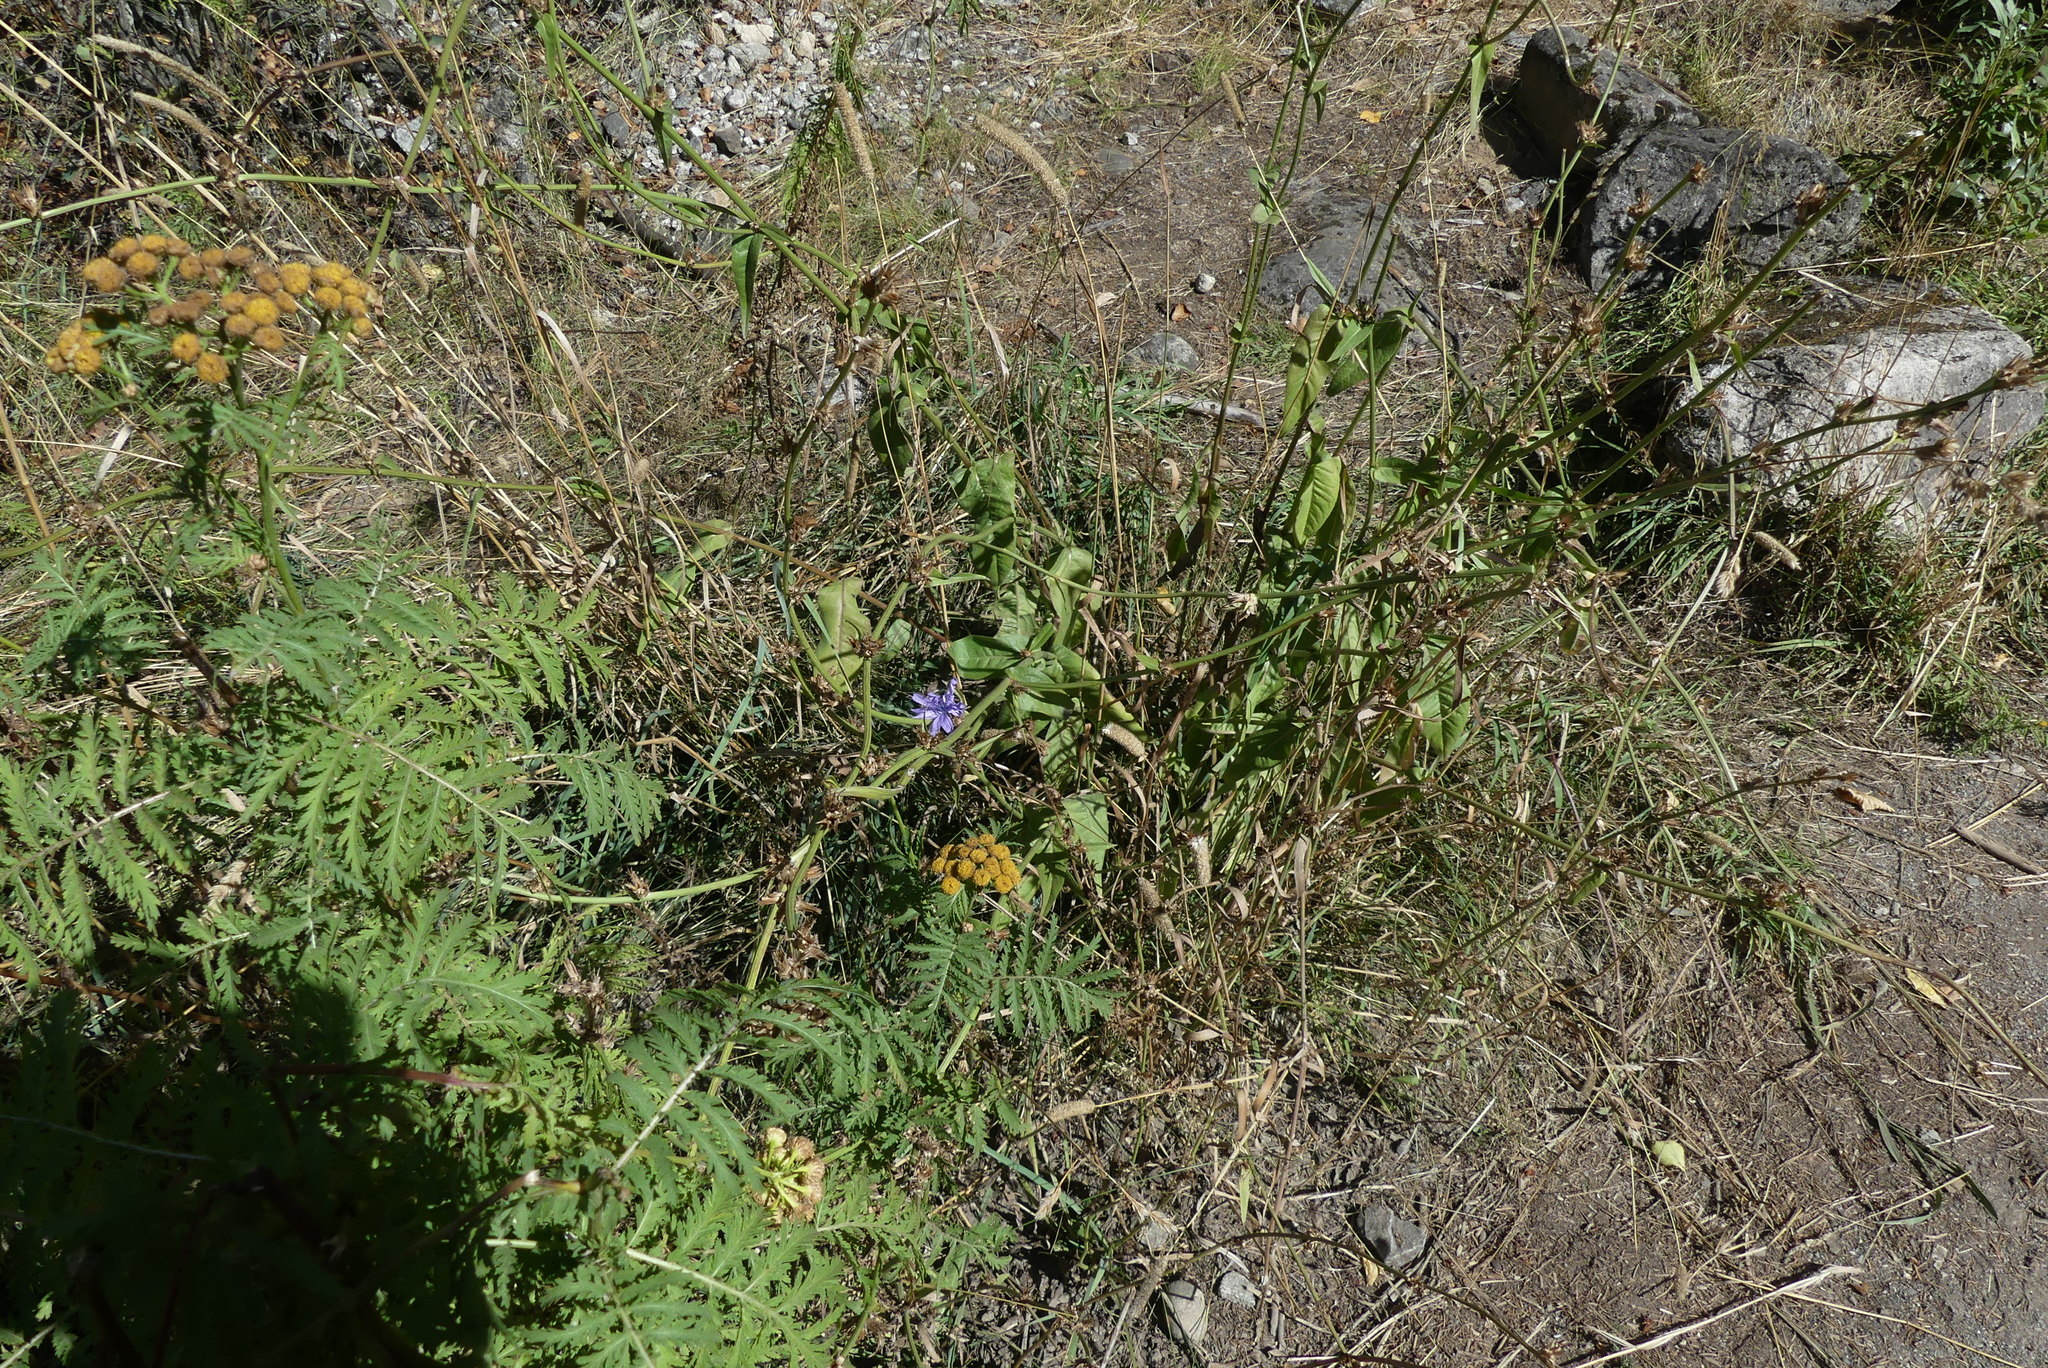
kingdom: Plantae
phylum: Tracheophyta
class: Magnoliopsida
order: Asterales
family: Asteraceae
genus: Cichorium
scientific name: Cichorium intybus
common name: Chicory
